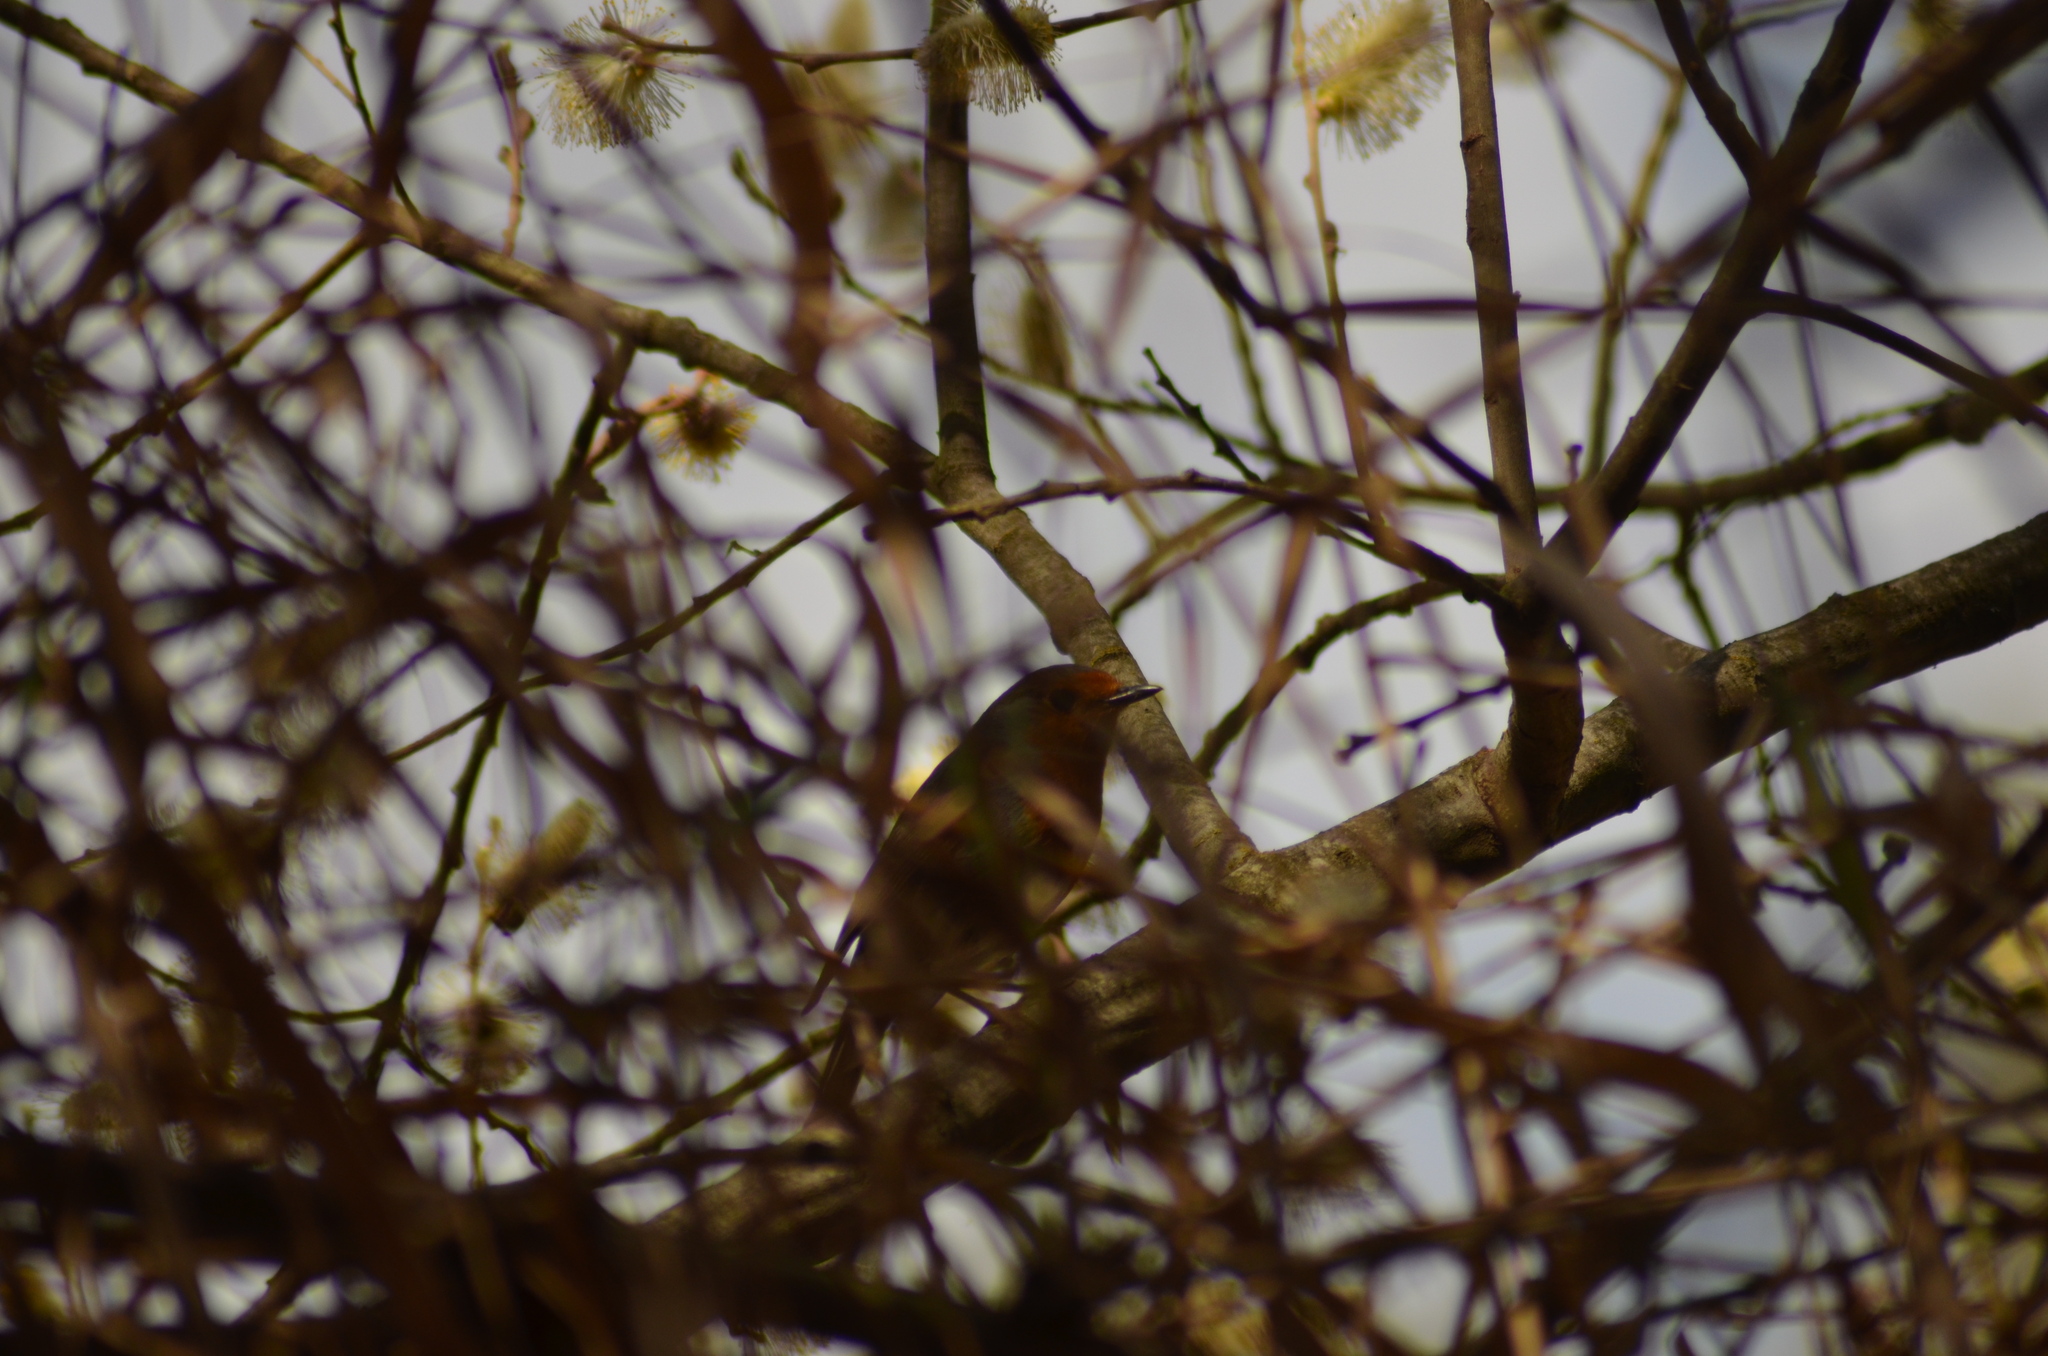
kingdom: Animalia
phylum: Chordata
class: Aves
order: Passeriformes
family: Muscicapidae
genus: Erithacus
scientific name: Erithacus rubecula
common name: European robin
